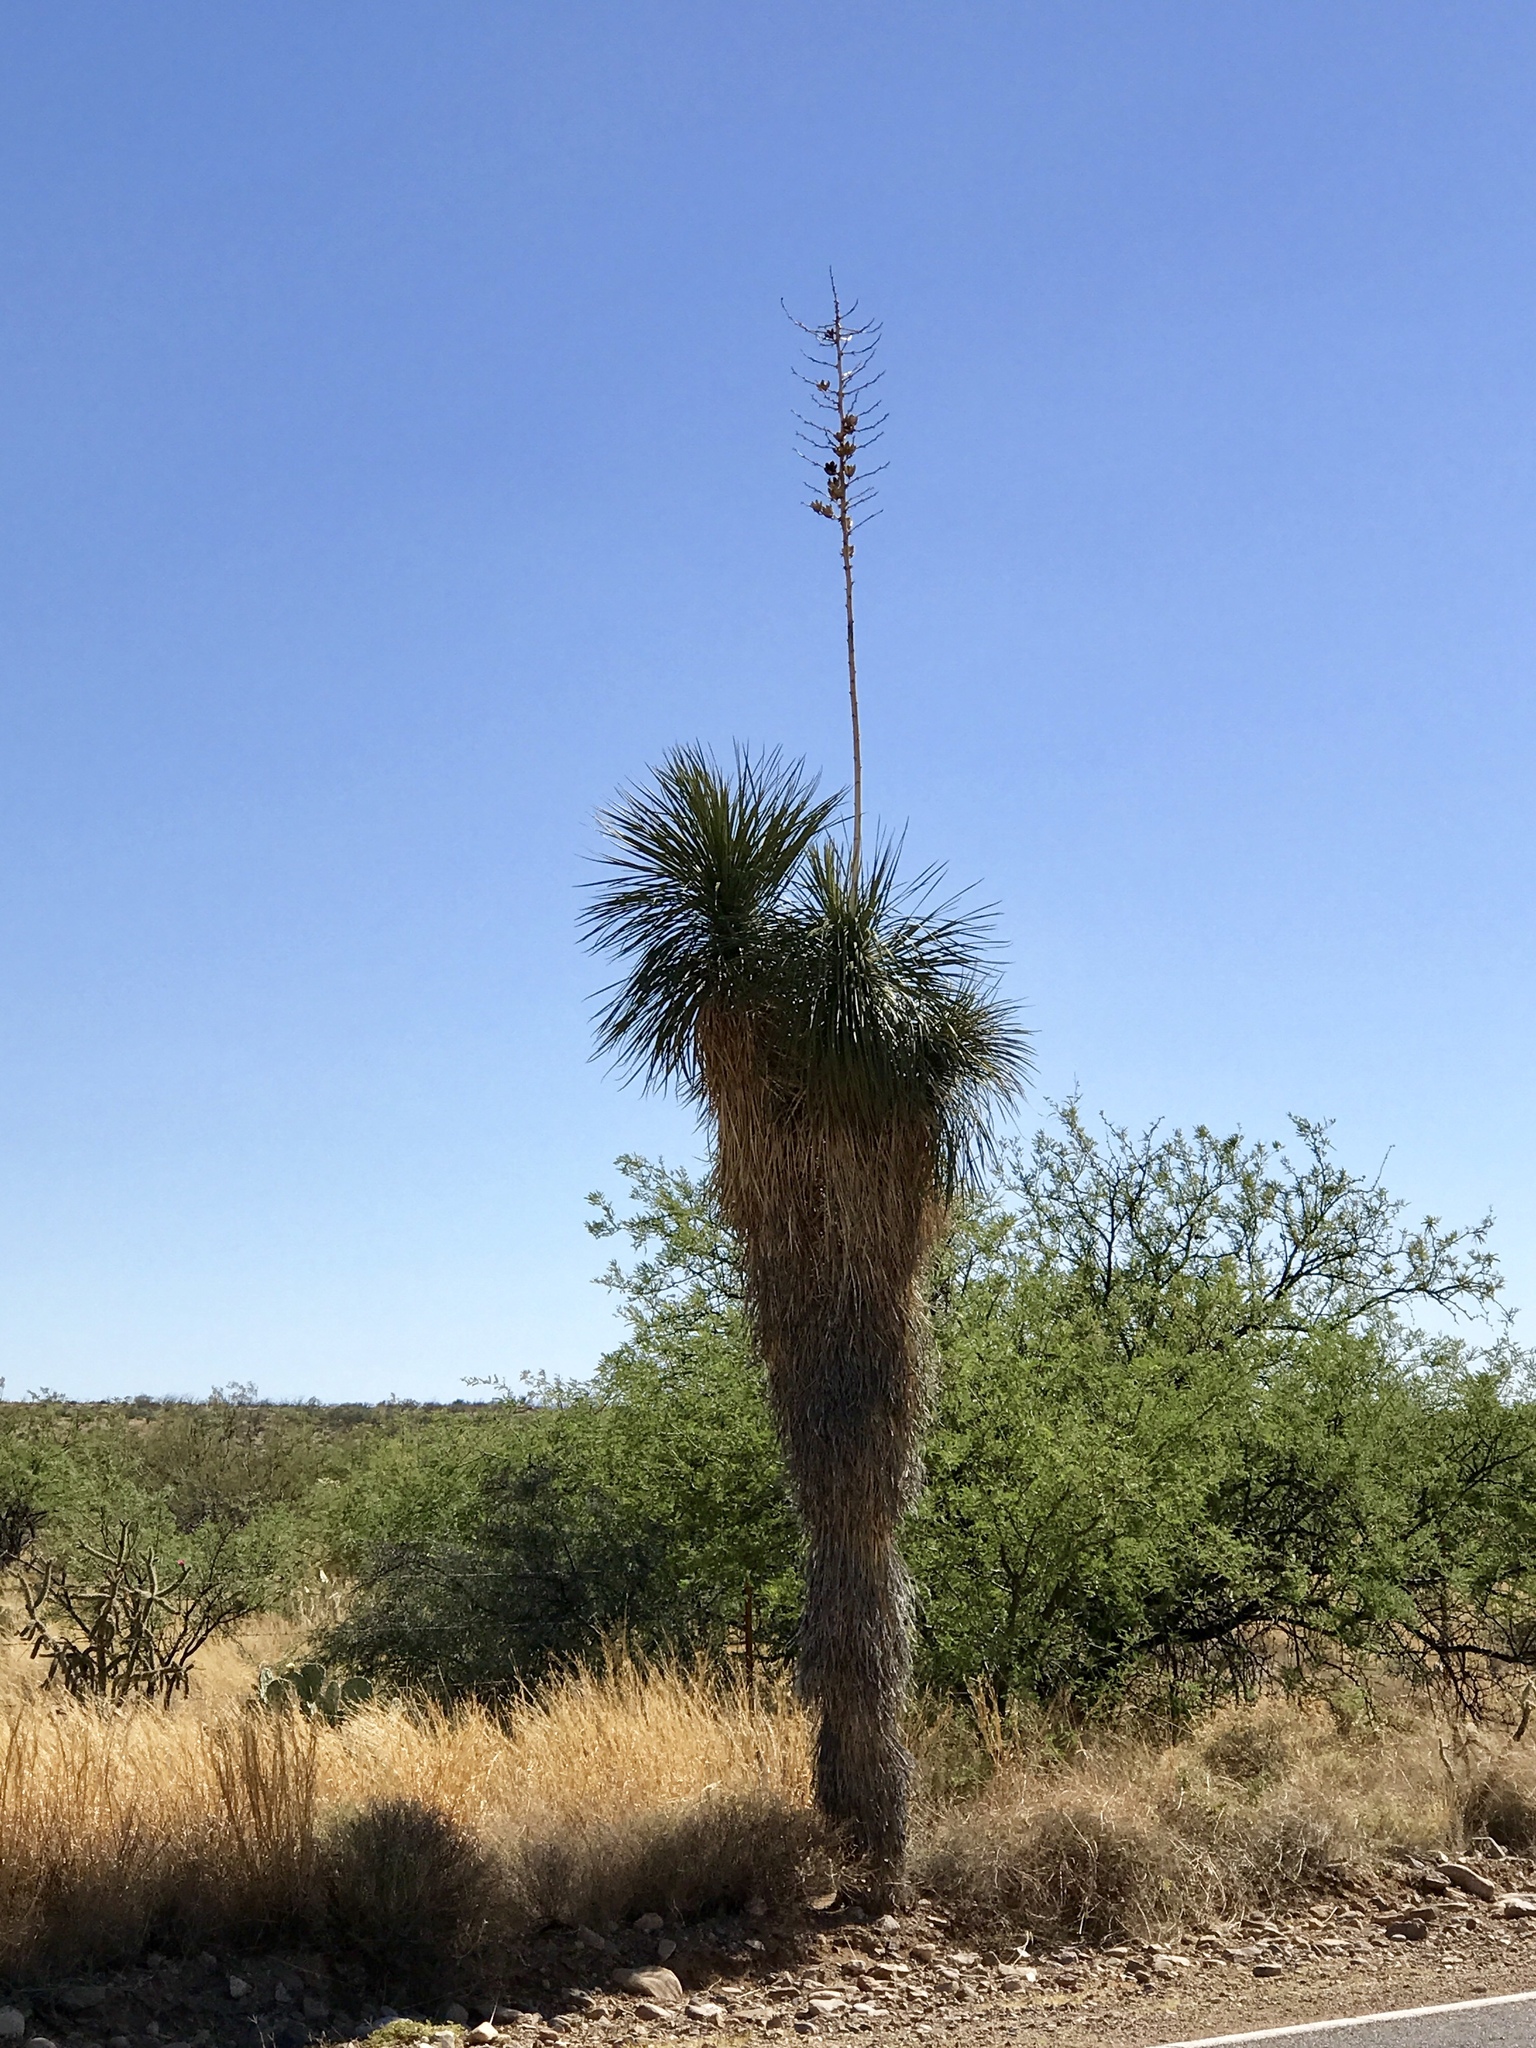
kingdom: Plantae
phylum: Tracheophyta
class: Liliopsida
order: Asparagales
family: Asparagaceae
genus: Yucca
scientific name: Yucca elata
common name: Palmella
